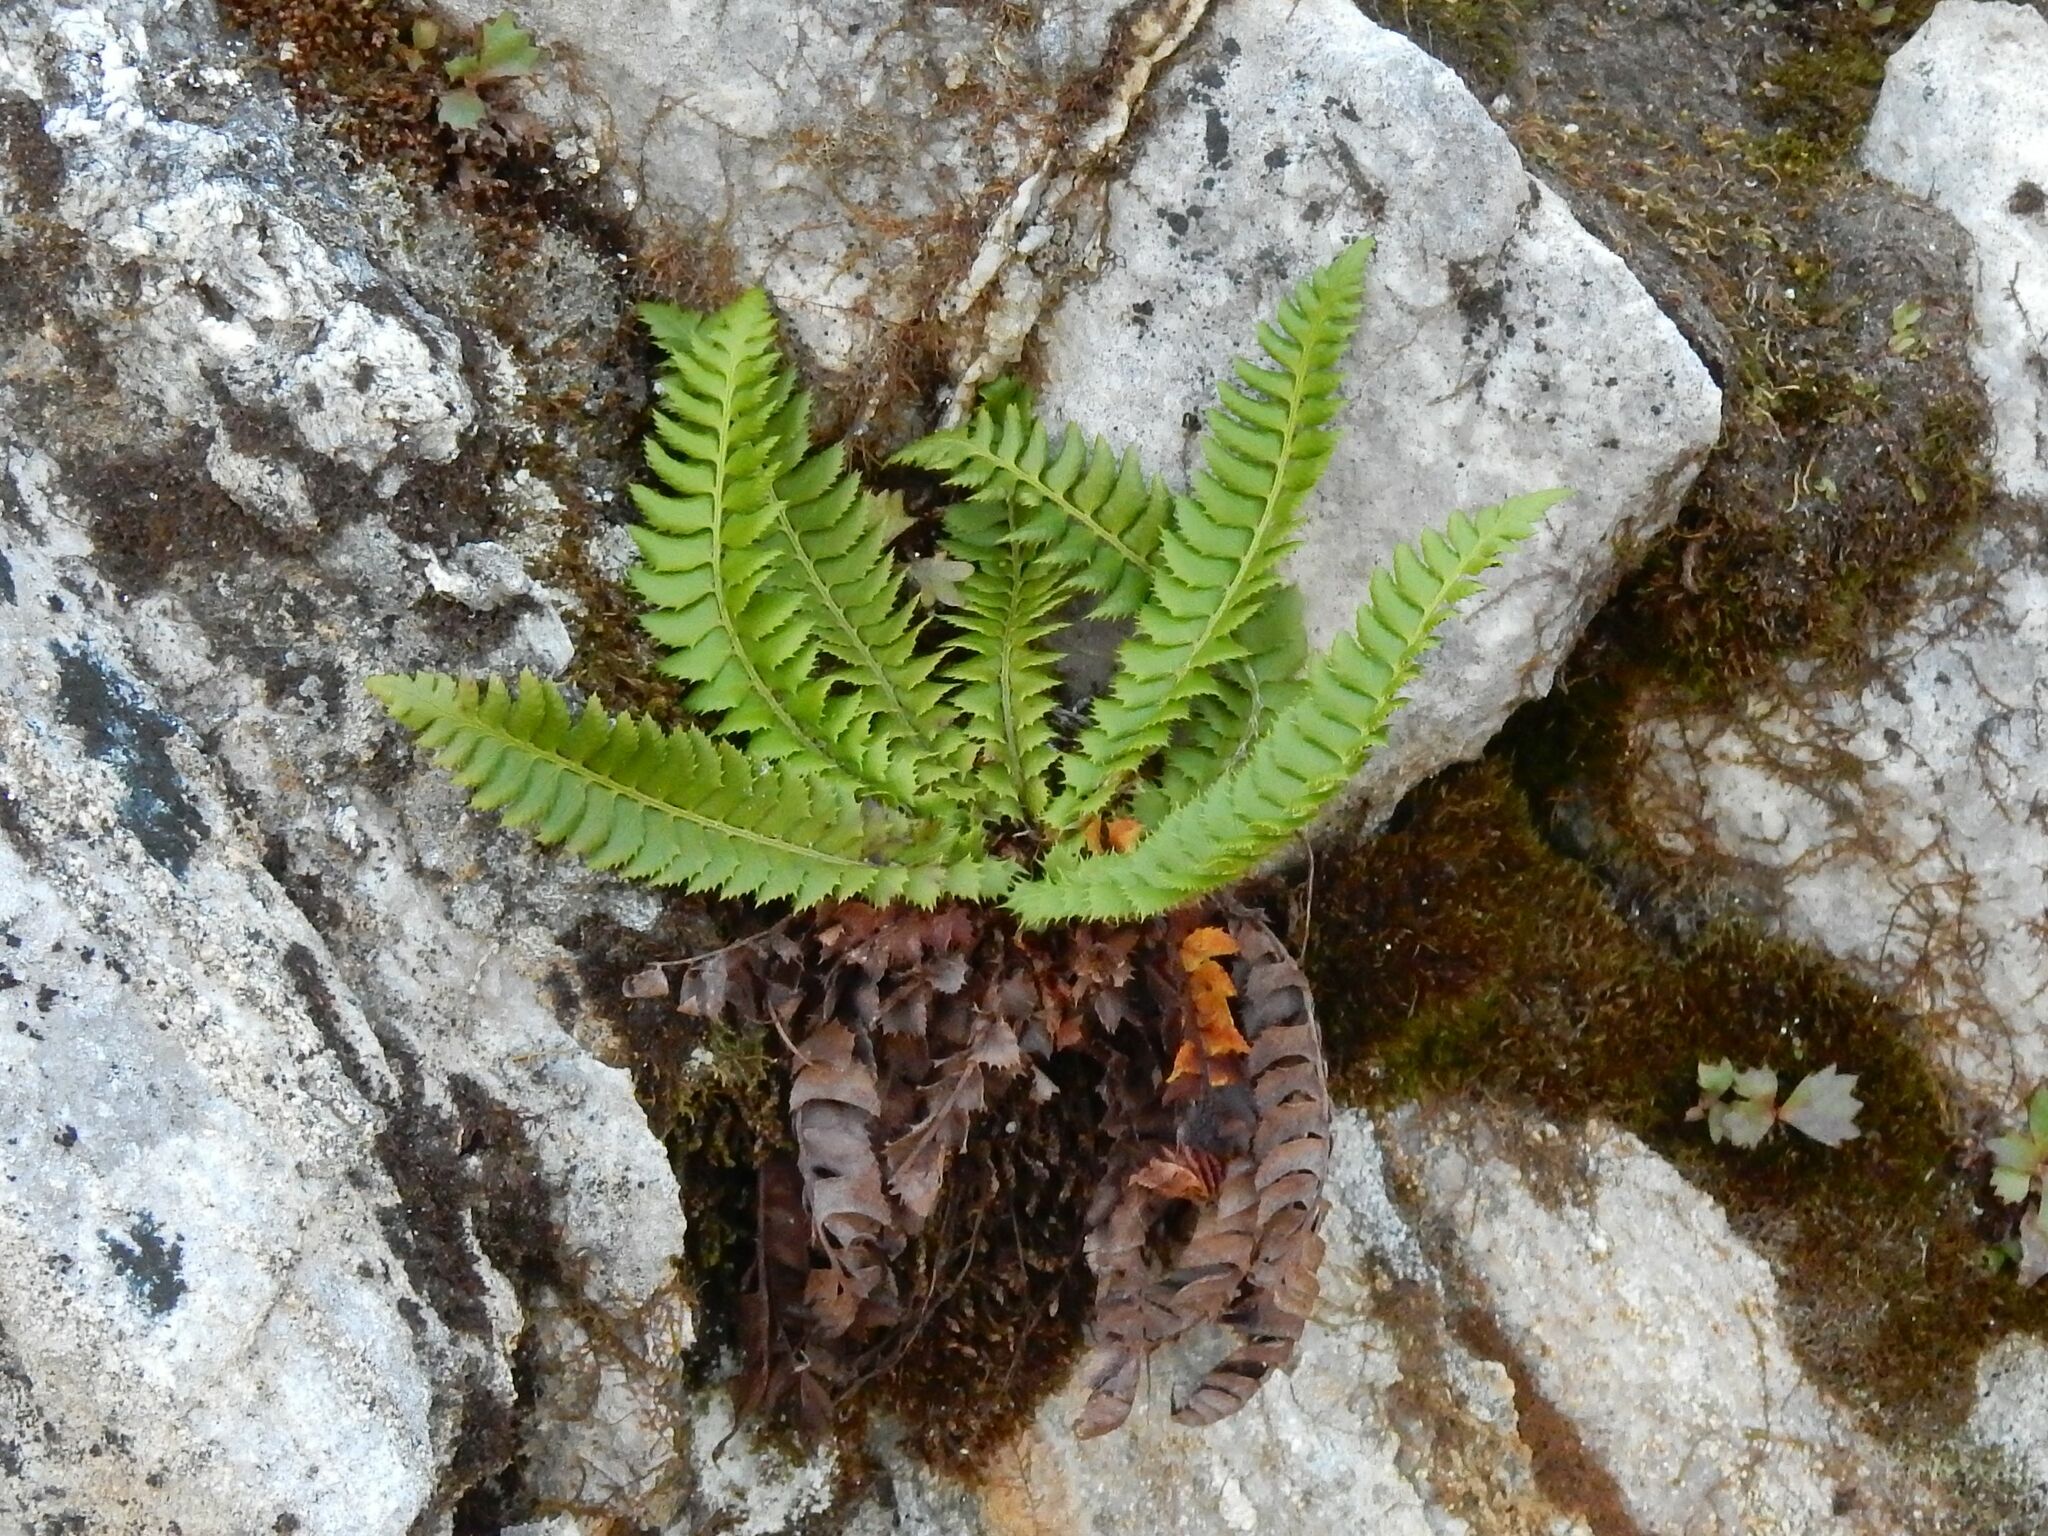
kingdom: Plantae
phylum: Tracheophyta
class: Polypodiopsida
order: Polypodiales
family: Dryopteridaceae
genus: Polystichum
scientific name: Polystichum lonchitis
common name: Holly fern
